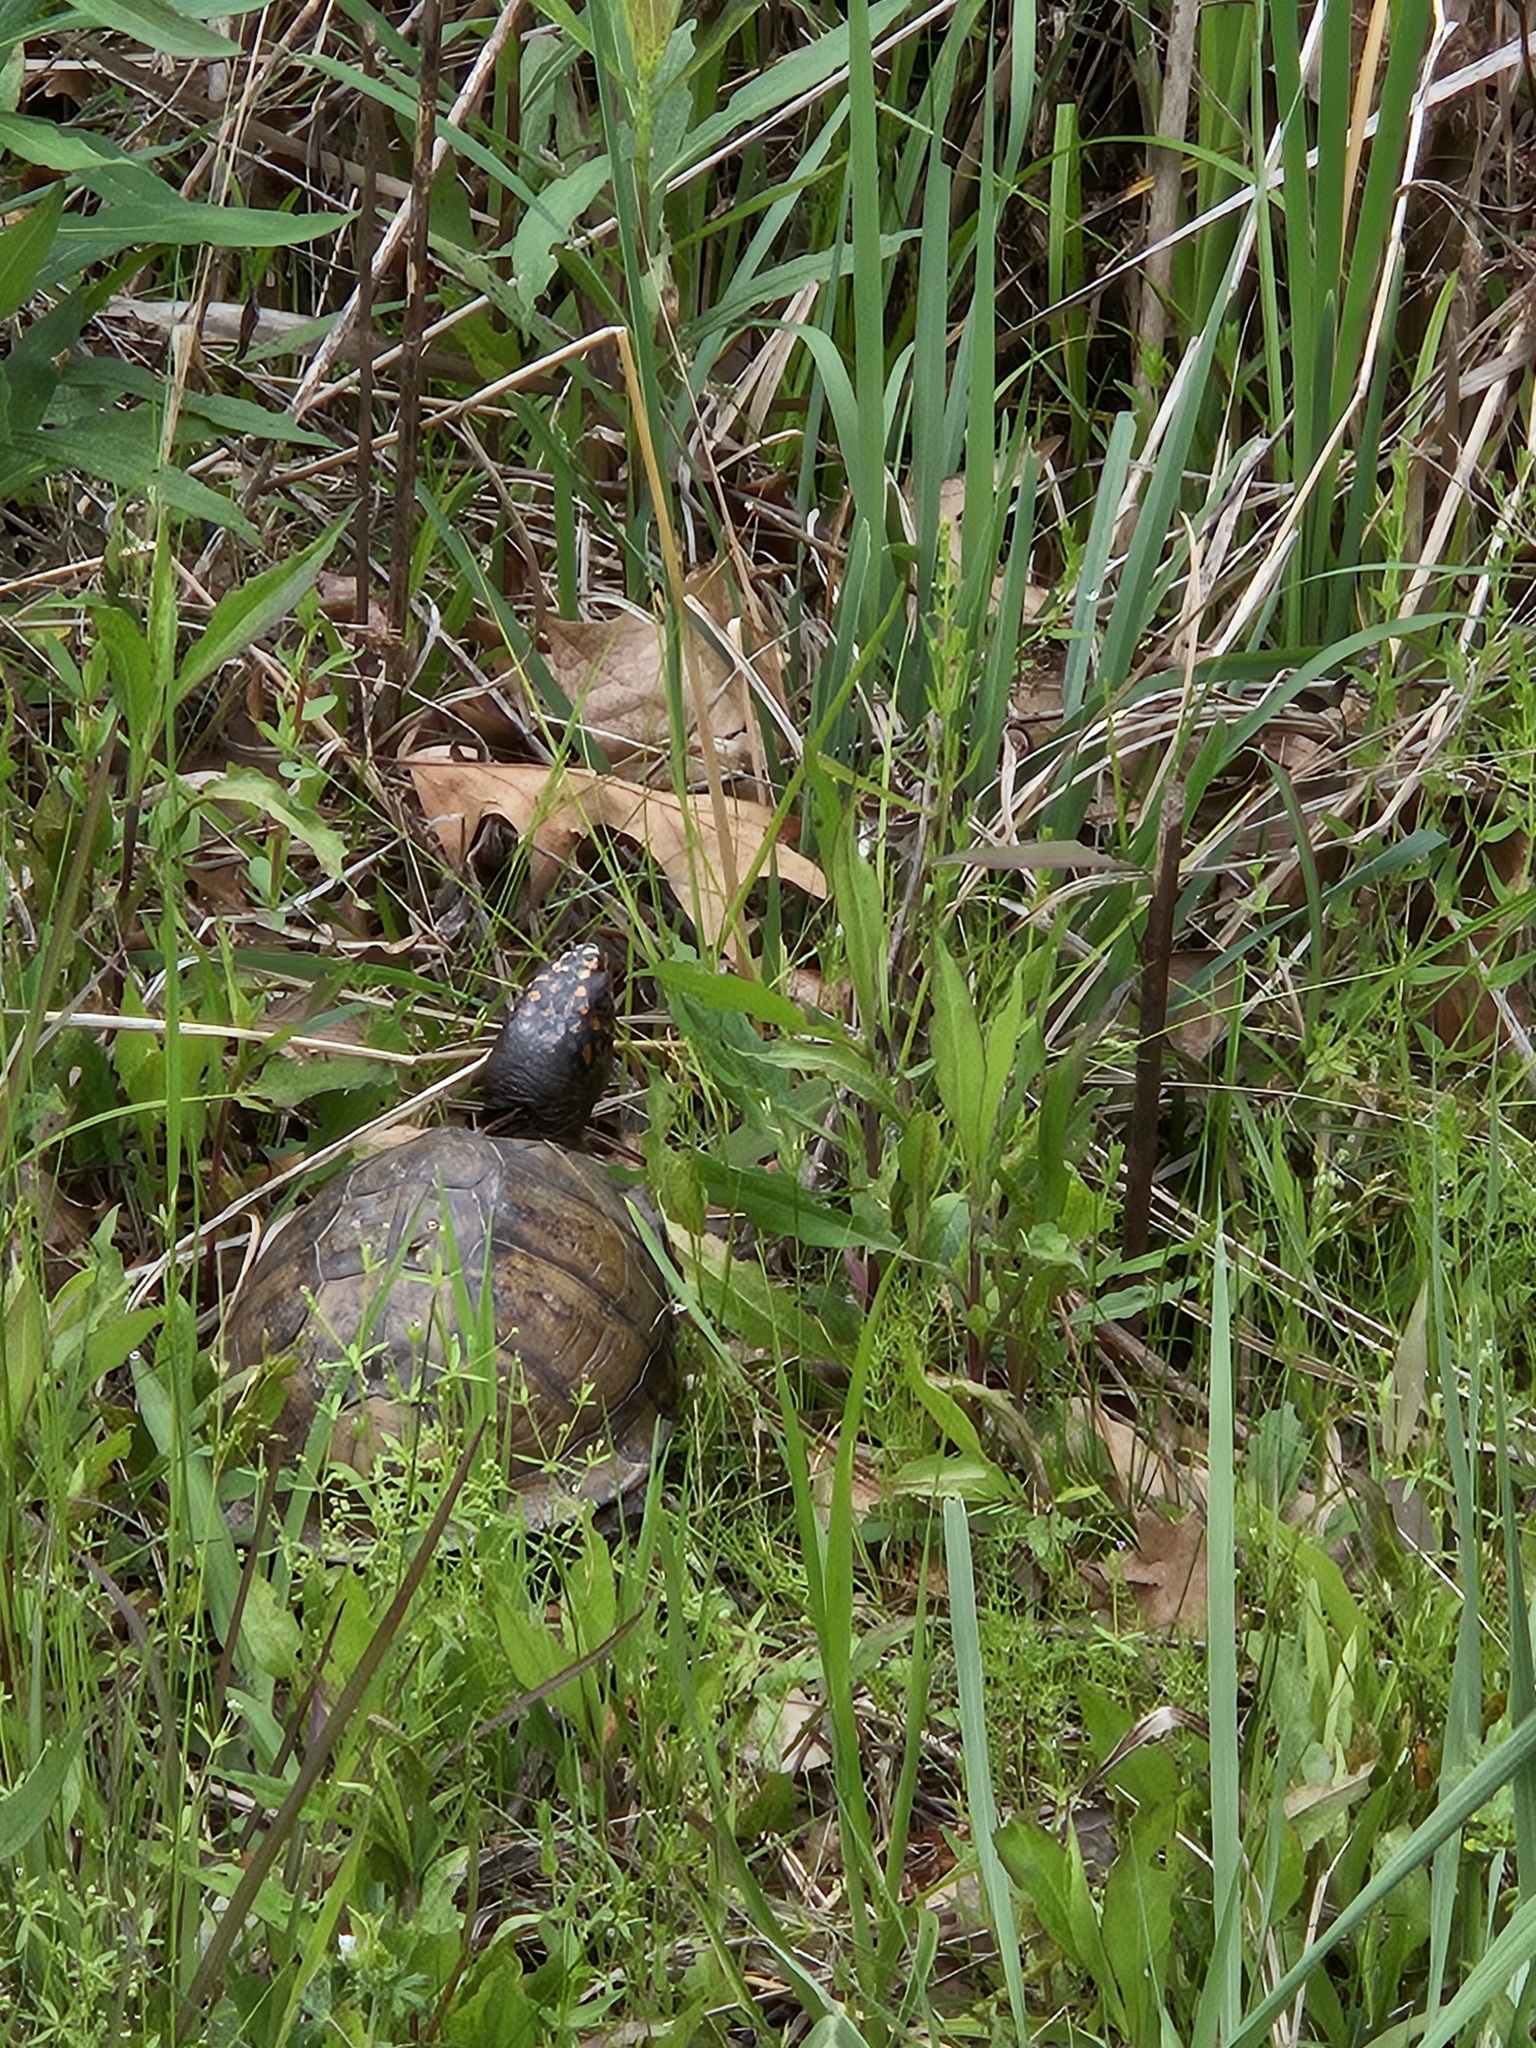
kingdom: Animalia
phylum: Chordata
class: Testudines
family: Emydidae
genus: Terrapene
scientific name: Terrapene carolina
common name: Common box turtle
